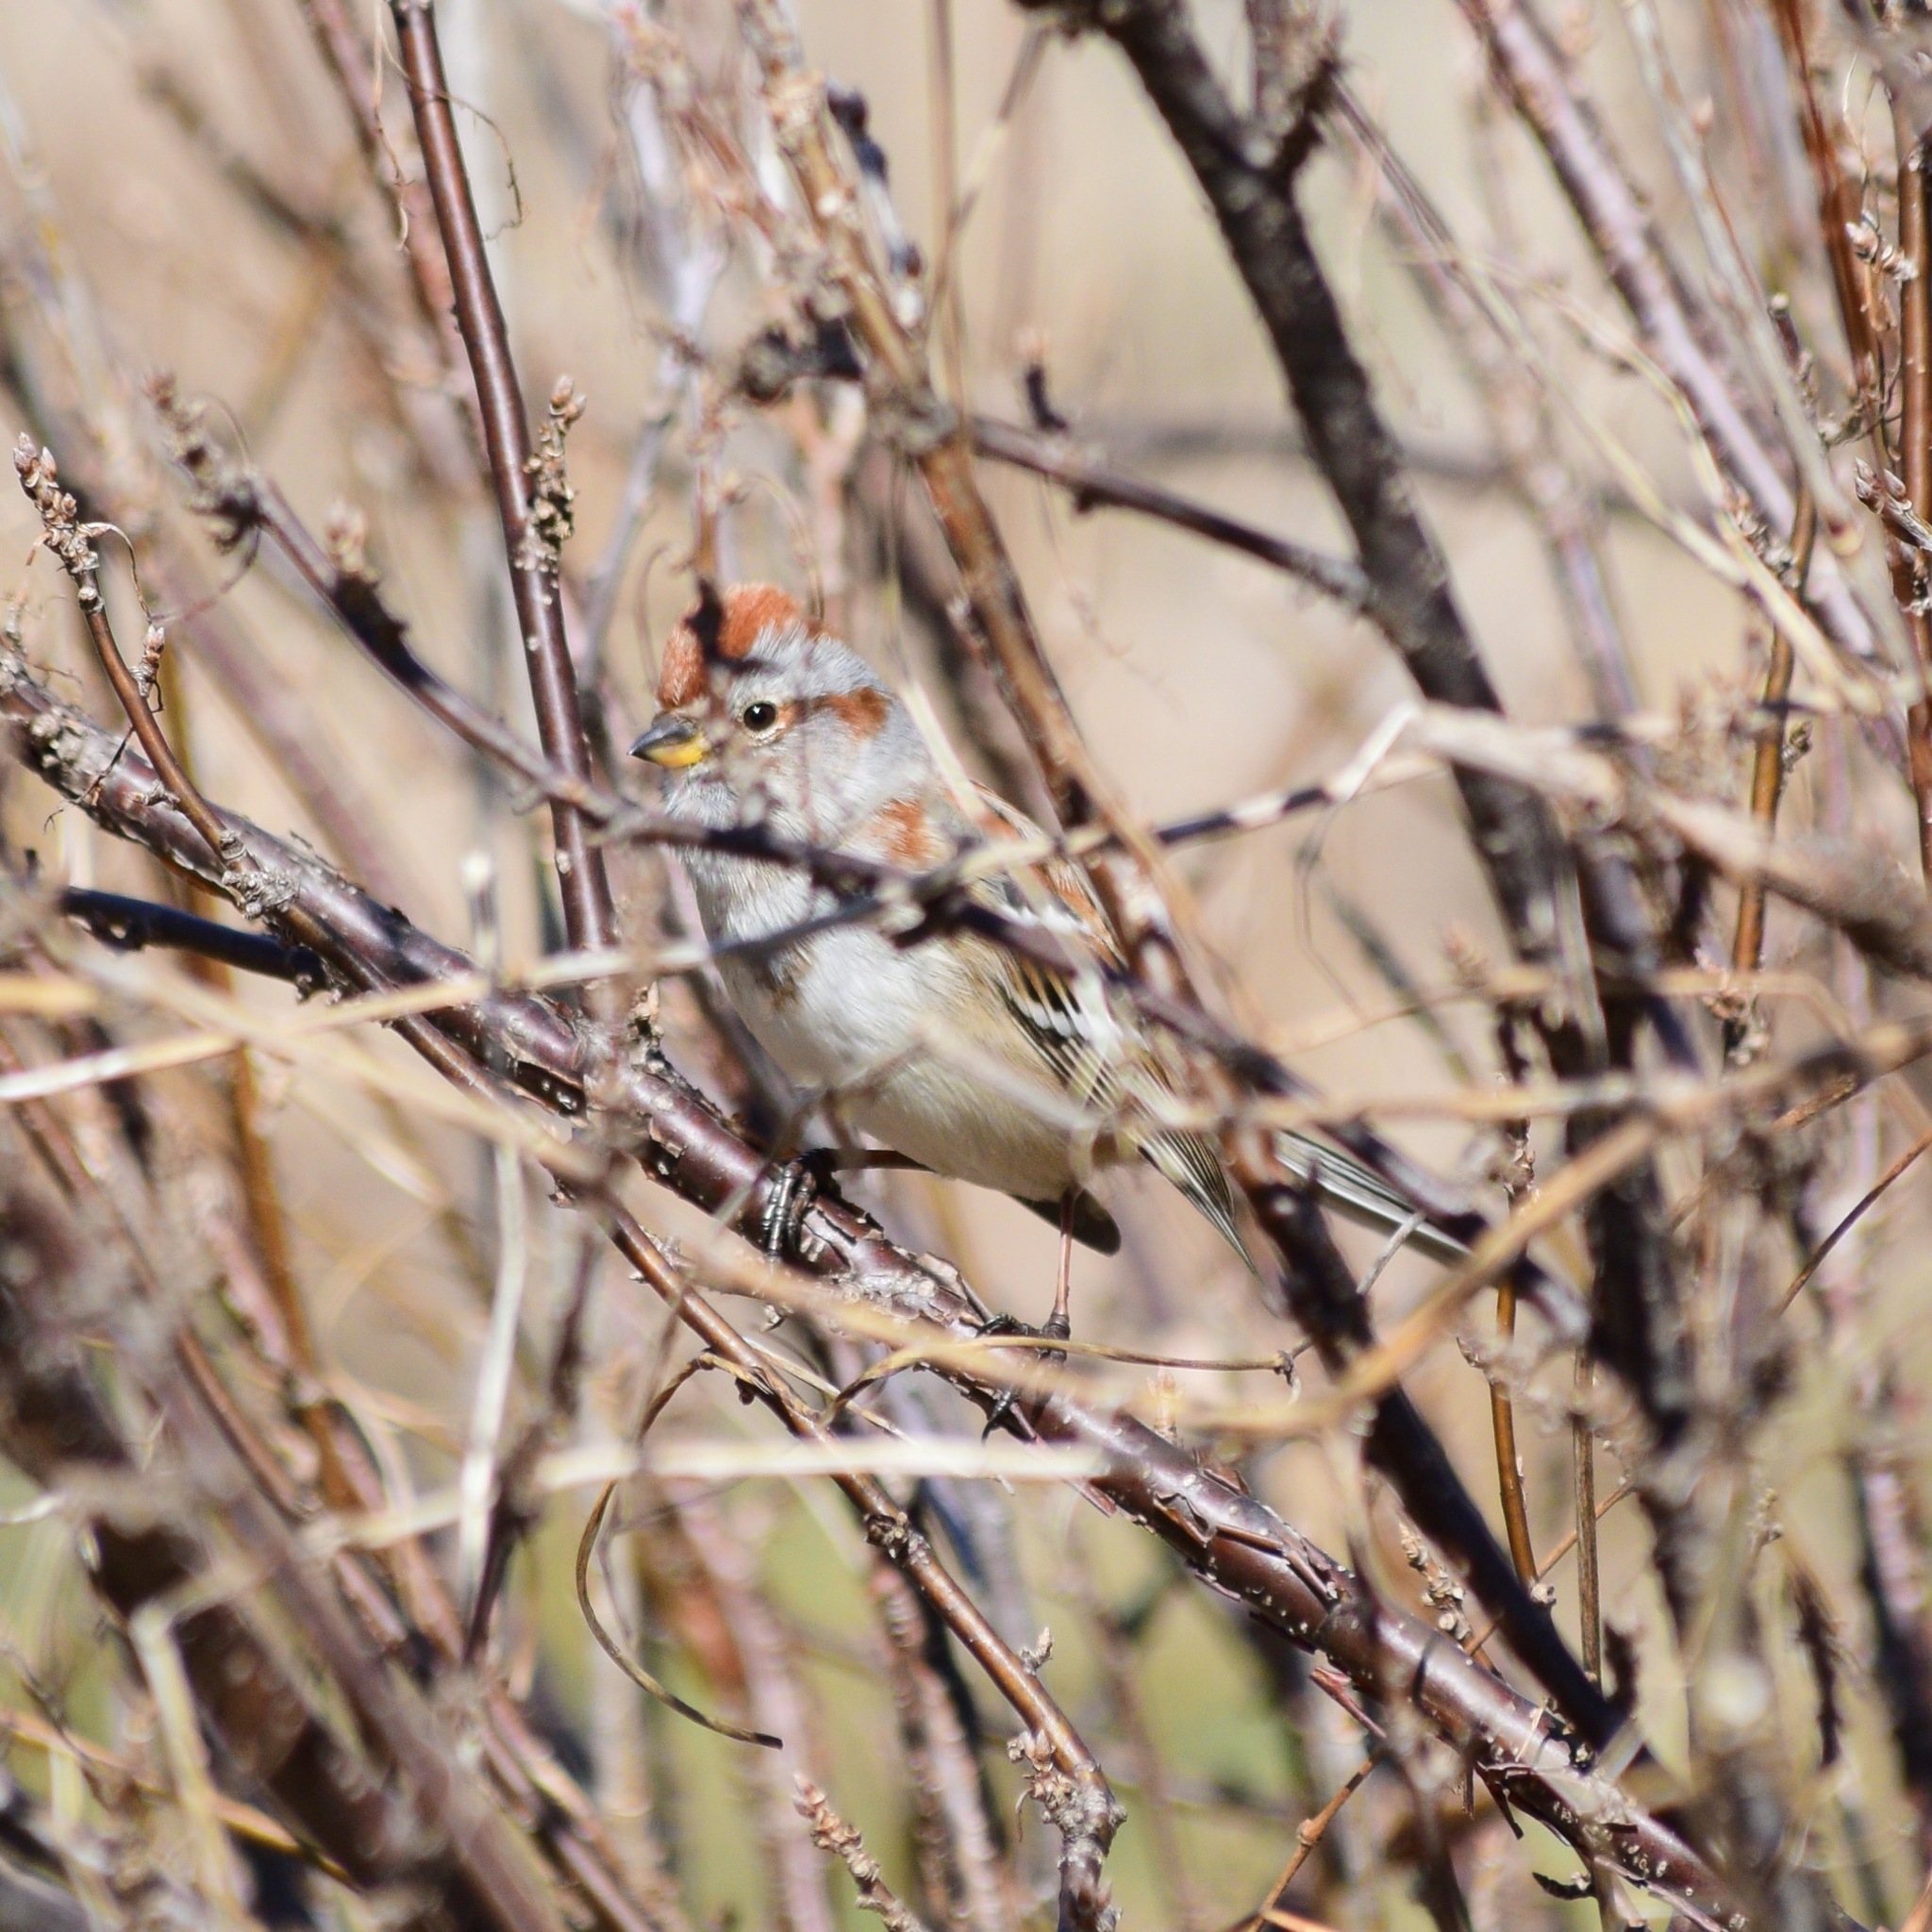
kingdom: Animalia
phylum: Chordata
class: Aves
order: Passeriformes
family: Passerellidae
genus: Spizelloides
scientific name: Spizelloides arborea
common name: American tree sparrow
